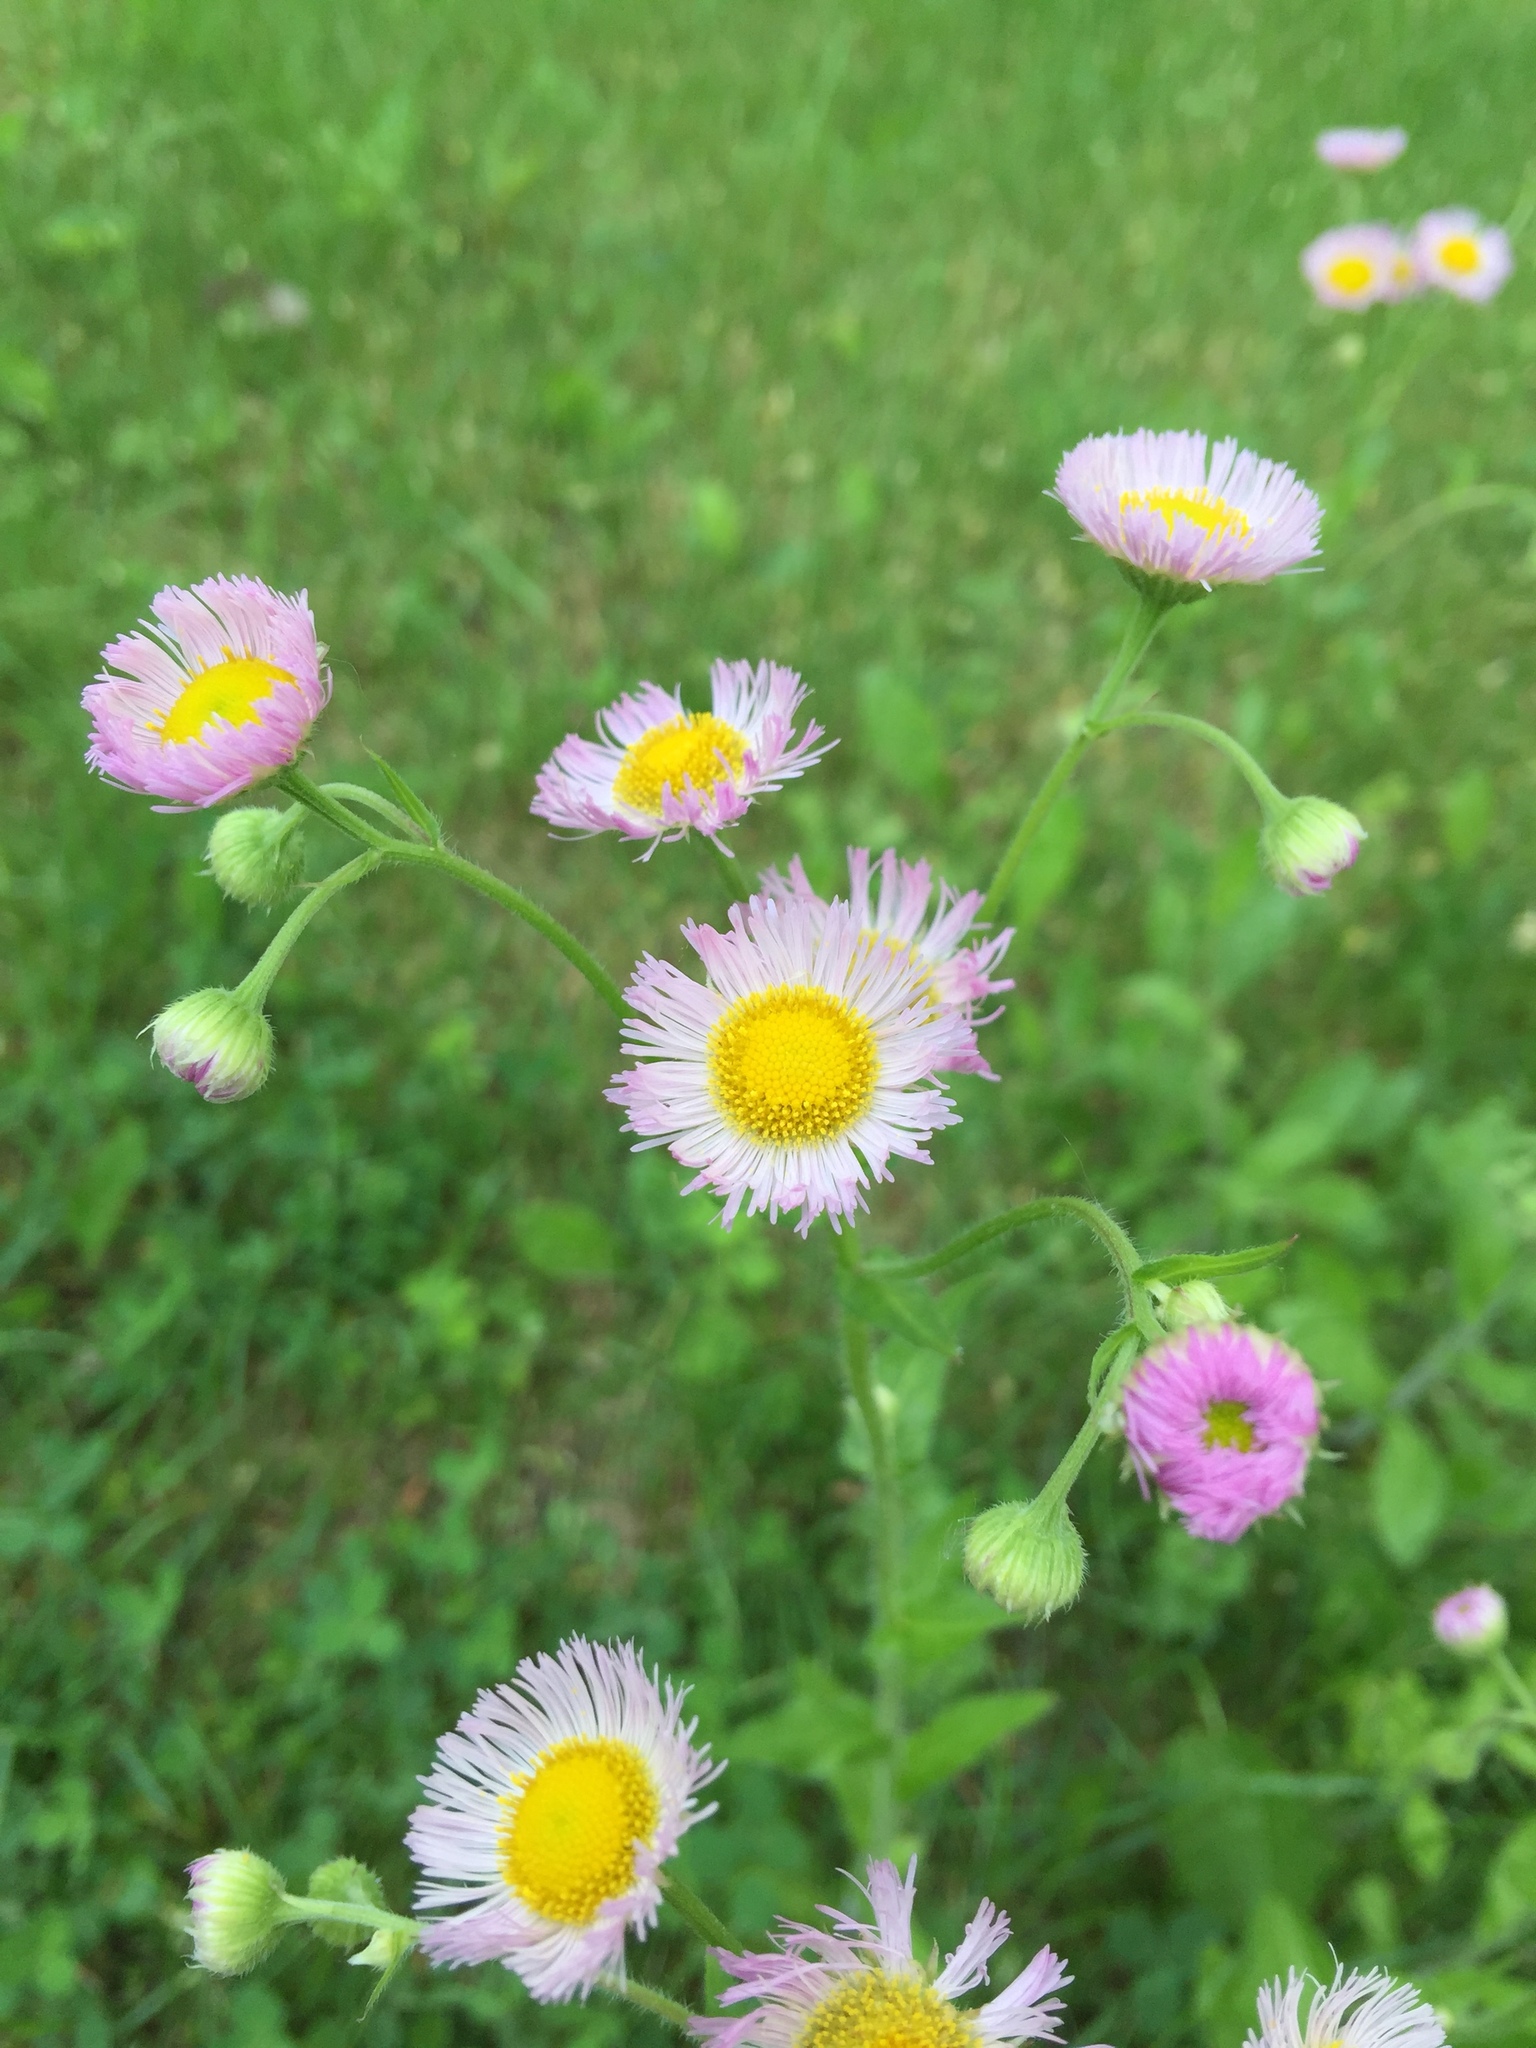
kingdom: Plantae
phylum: Tracheophyta
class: Magnoliopsida
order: Asterales
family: Asteraceae
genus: Erigeron
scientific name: Erigeron philadelphicus
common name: Robin's-plantain
